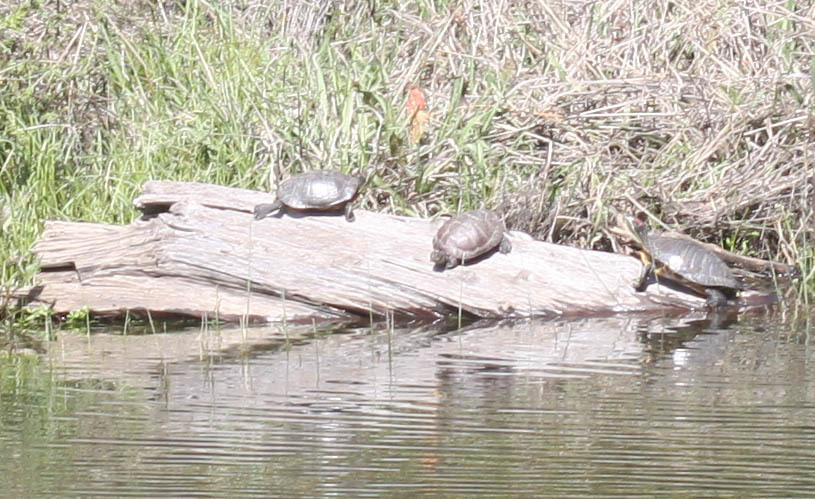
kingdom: Animalia
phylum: Chordata
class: Testudines
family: Emydidae
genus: Trachemys
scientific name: Trachemys scripta
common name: Slider
